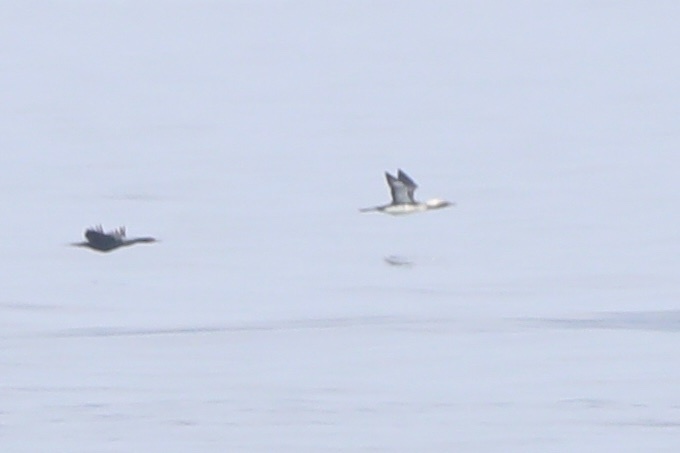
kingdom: Animalia
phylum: Chordata
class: Aves
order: Gaviiformes
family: Gaviidae
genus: Gavia
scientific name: Gavia pacifica
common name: Pacific loon
